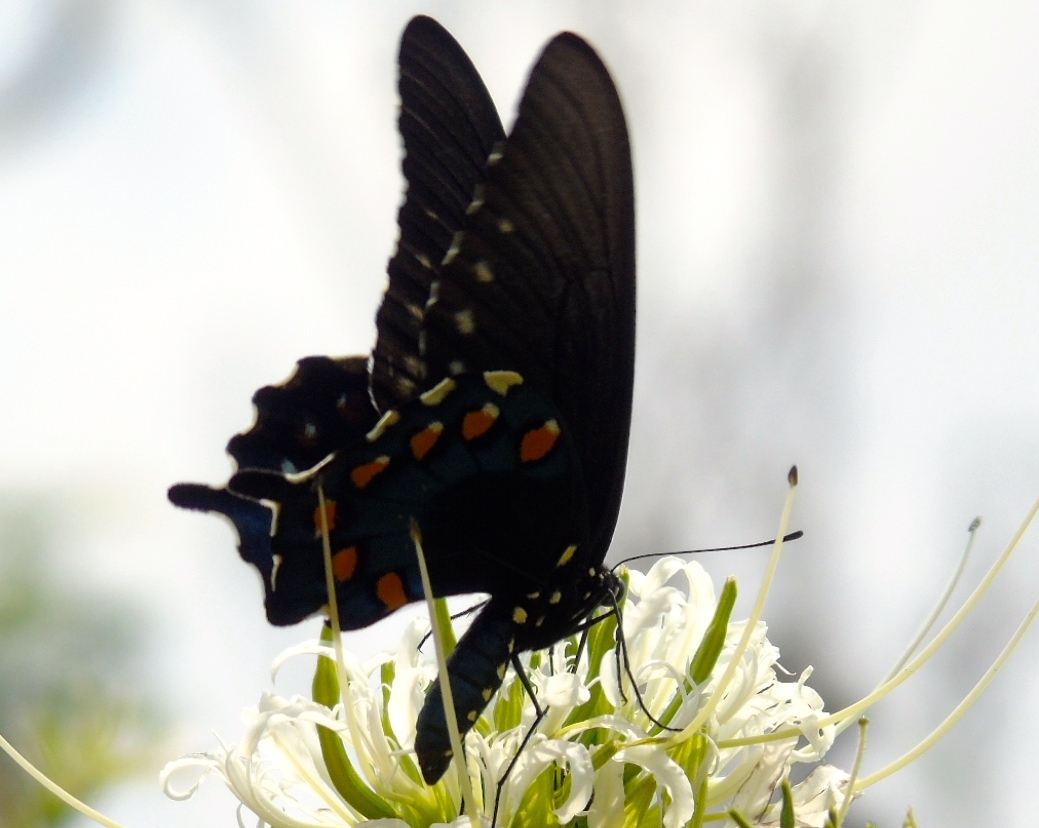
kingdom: Animalia
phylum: Arthropoda
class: Insecta
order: Lepidoptera
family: Papilionidae
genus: Battus
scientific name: Battus philenor
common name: Pipevine swallowtail
